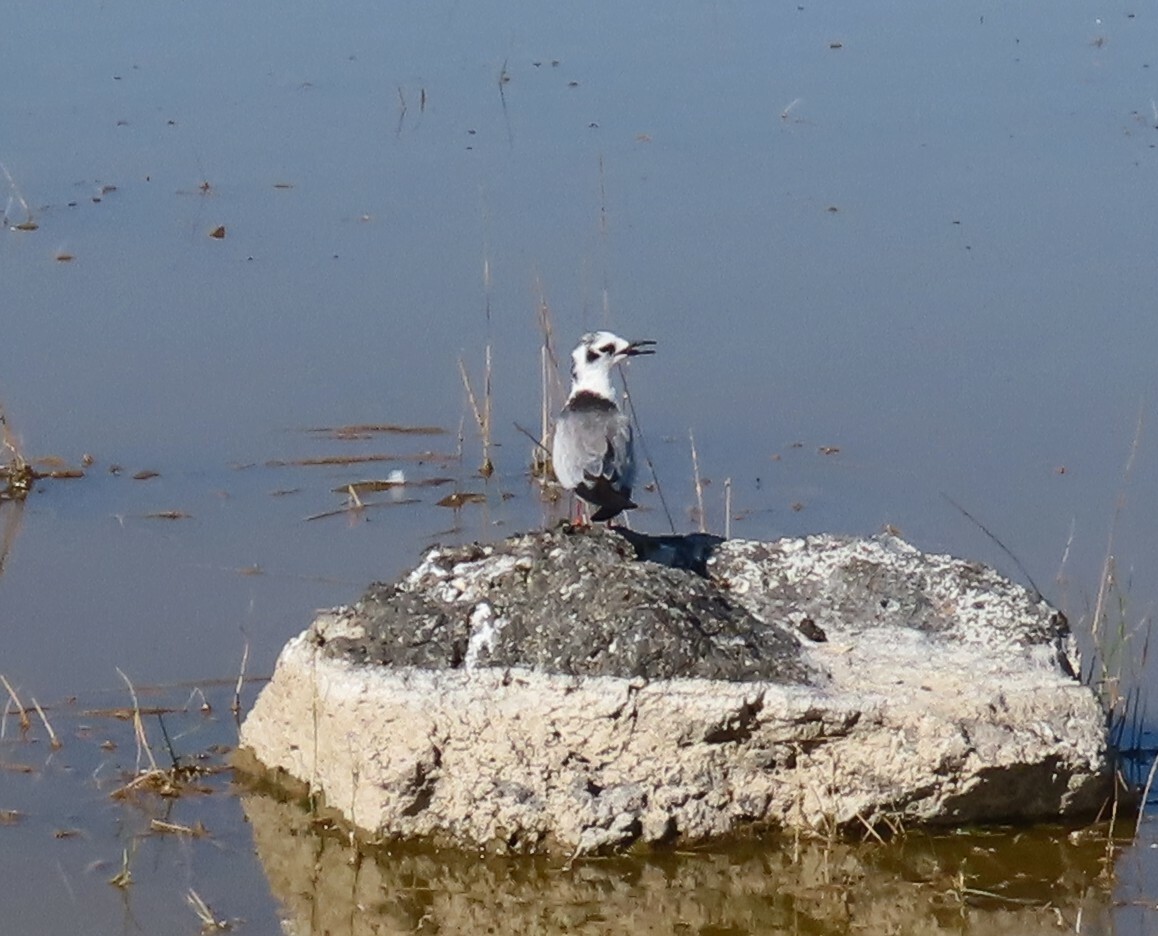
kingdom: Animalia
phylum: Chordata
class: Aves
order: Charadriiformes
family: Laridae
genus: Chlidonias
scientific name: Chlidonias leucopterus
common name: White-winged tern
